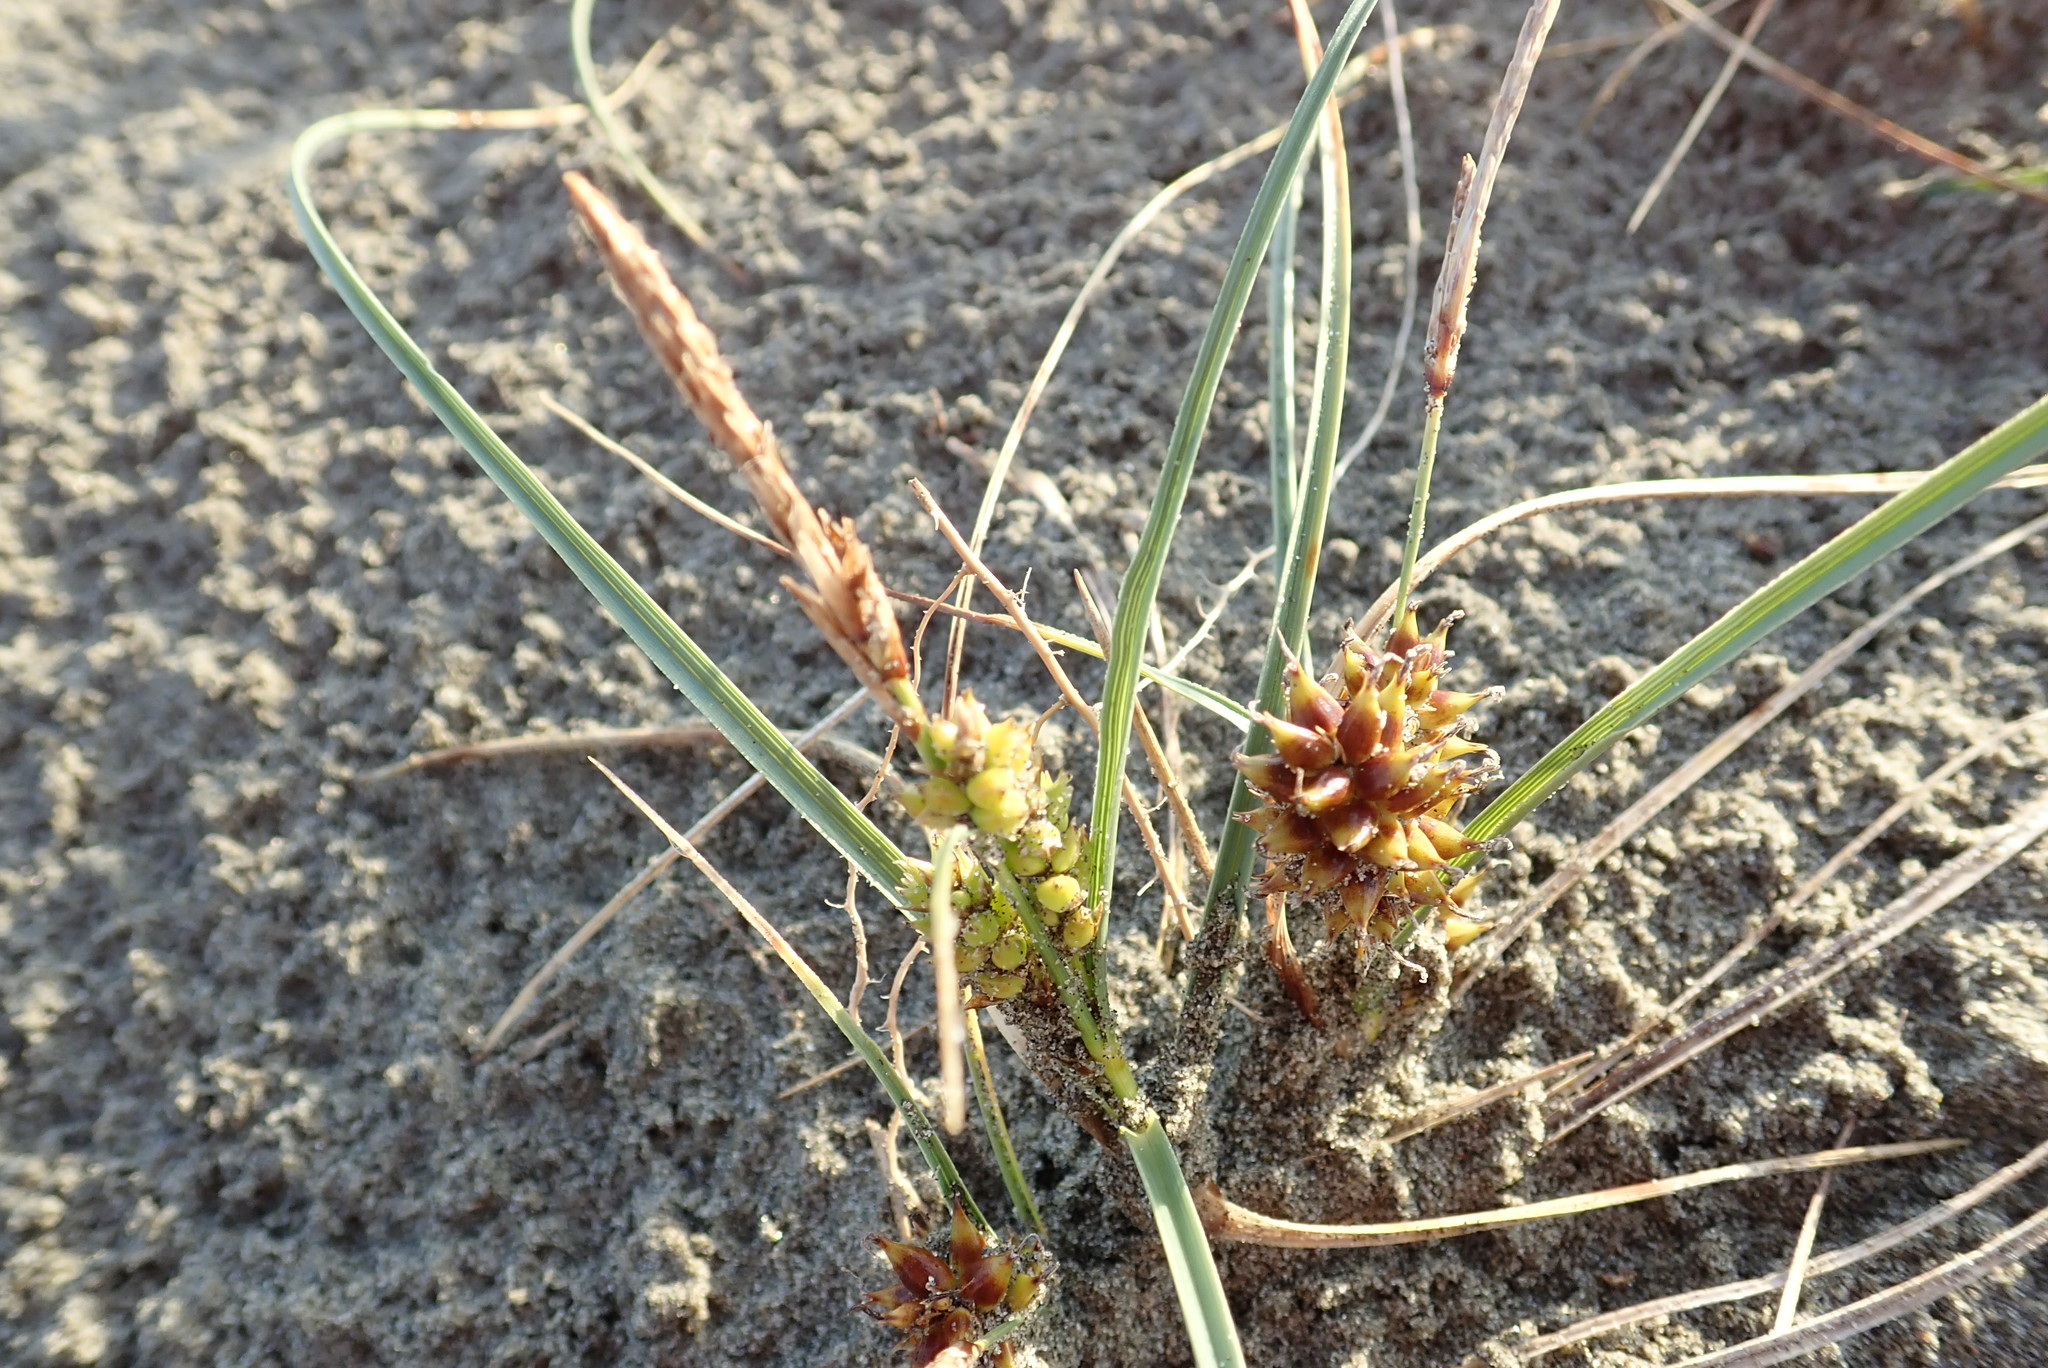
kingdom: Plantae
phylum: Tracheophyta
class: Liliopsida
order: Poales
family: Cyperaceae
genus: Carex
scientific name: Carex pumila
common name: Dwarf sedge
